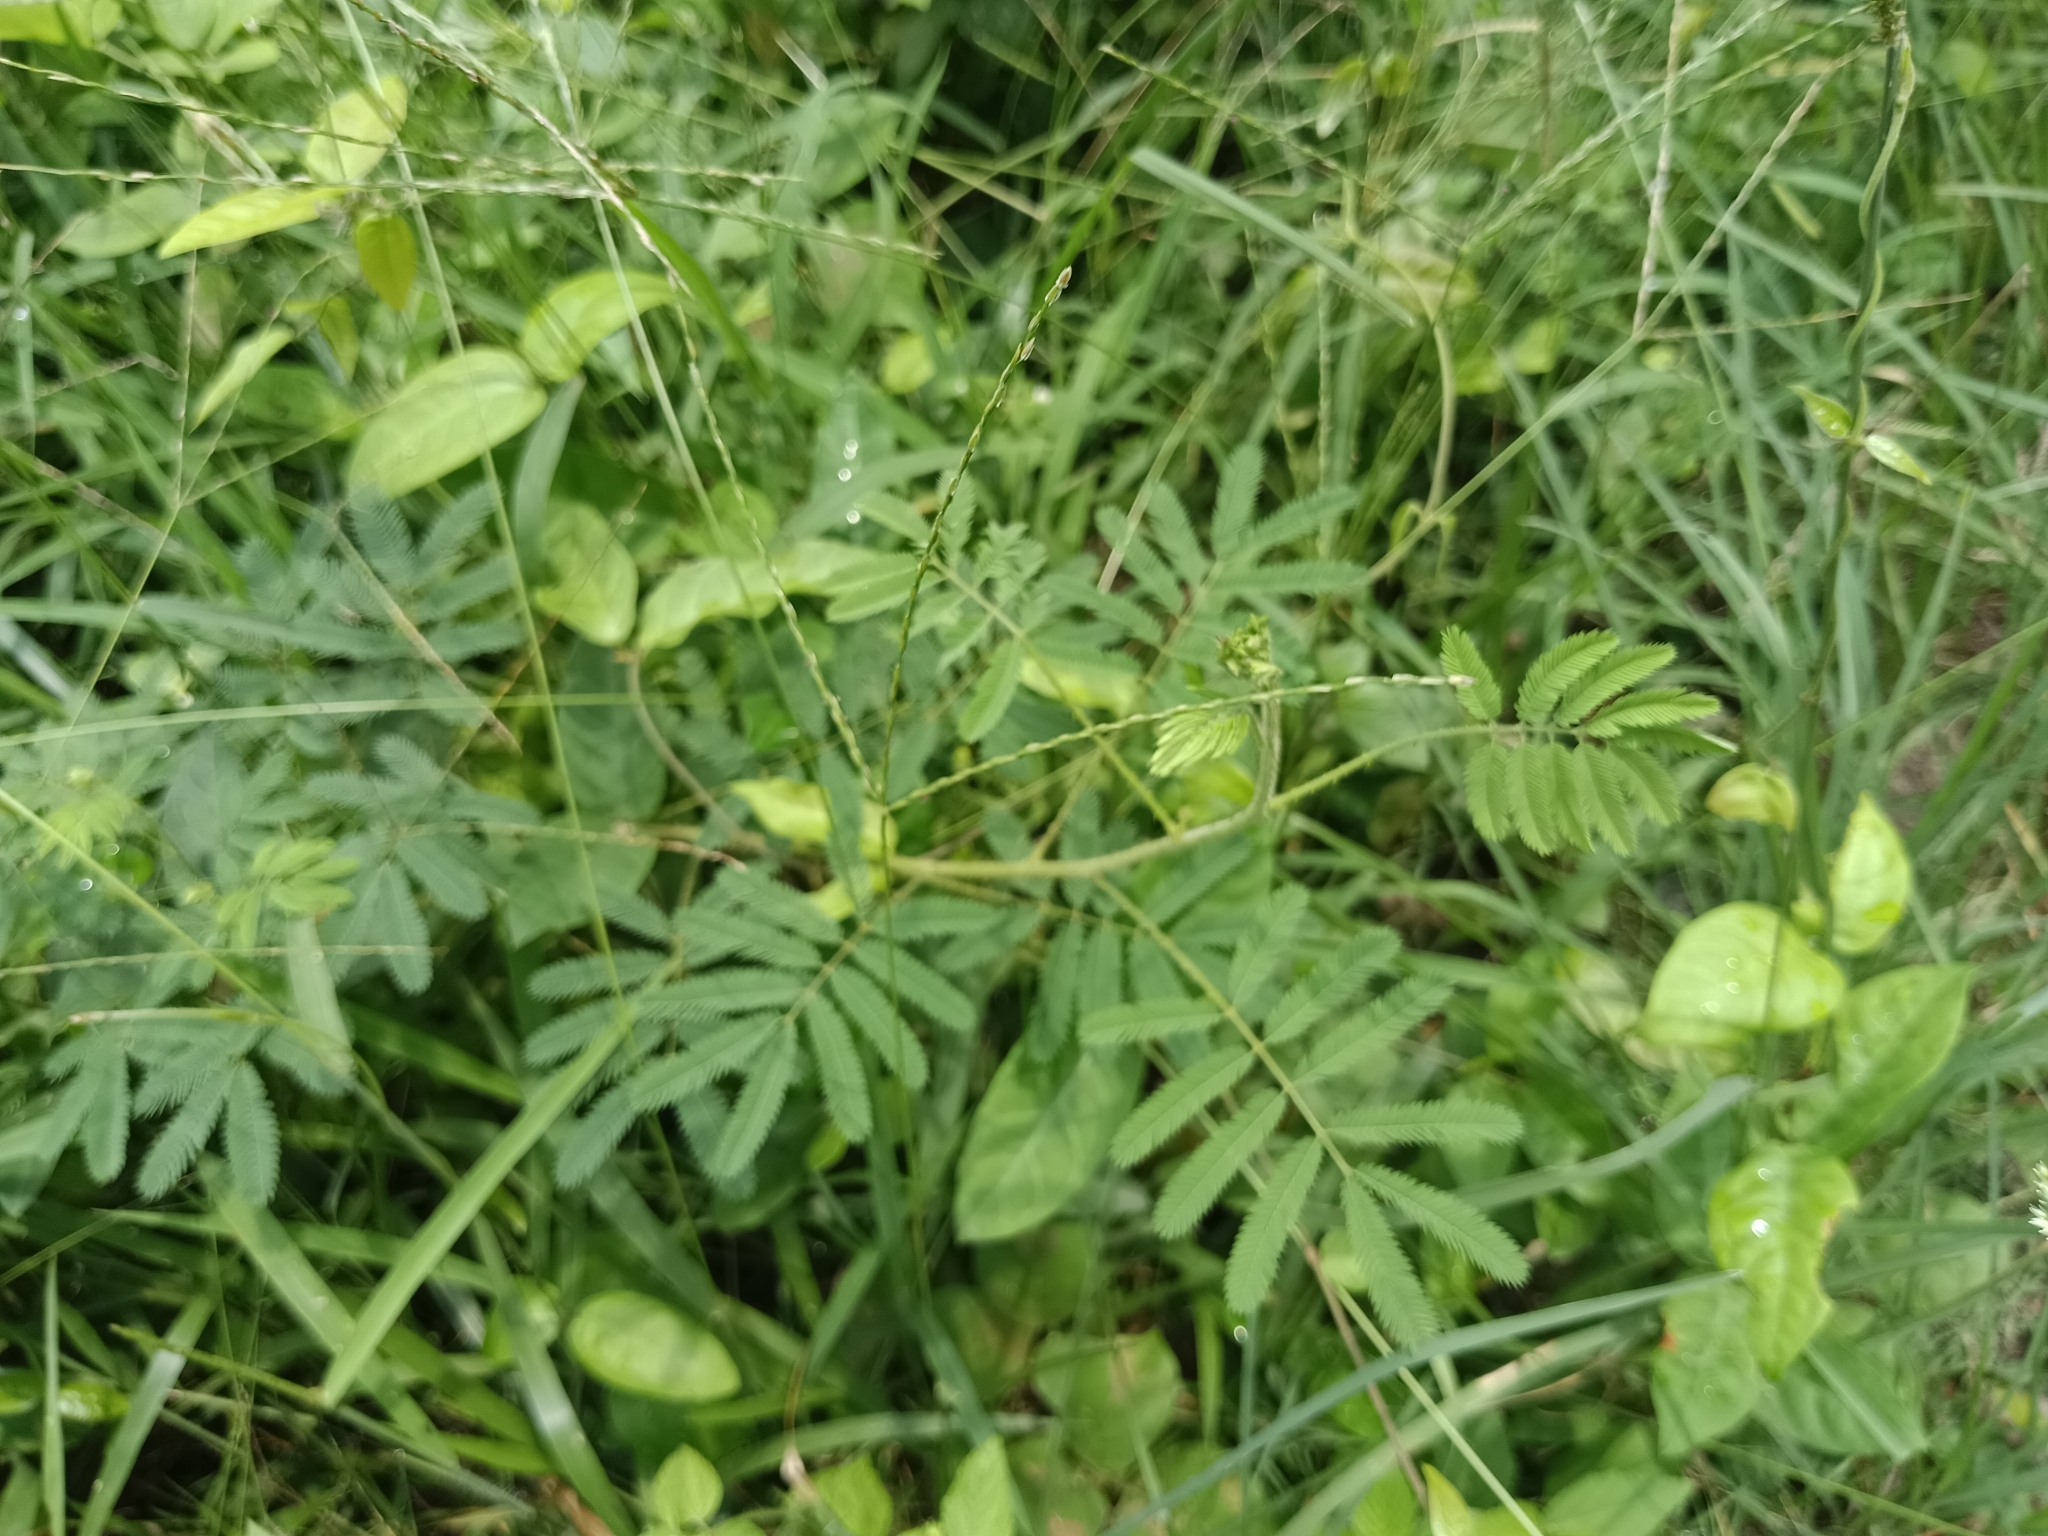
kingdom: Plantae
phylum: Tracheophyta
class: Magnoliopsida
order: Fabales
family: Fabaceae
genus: Mimosa
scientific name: Mimosa diplotricha
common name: Giant sensitive-plant
